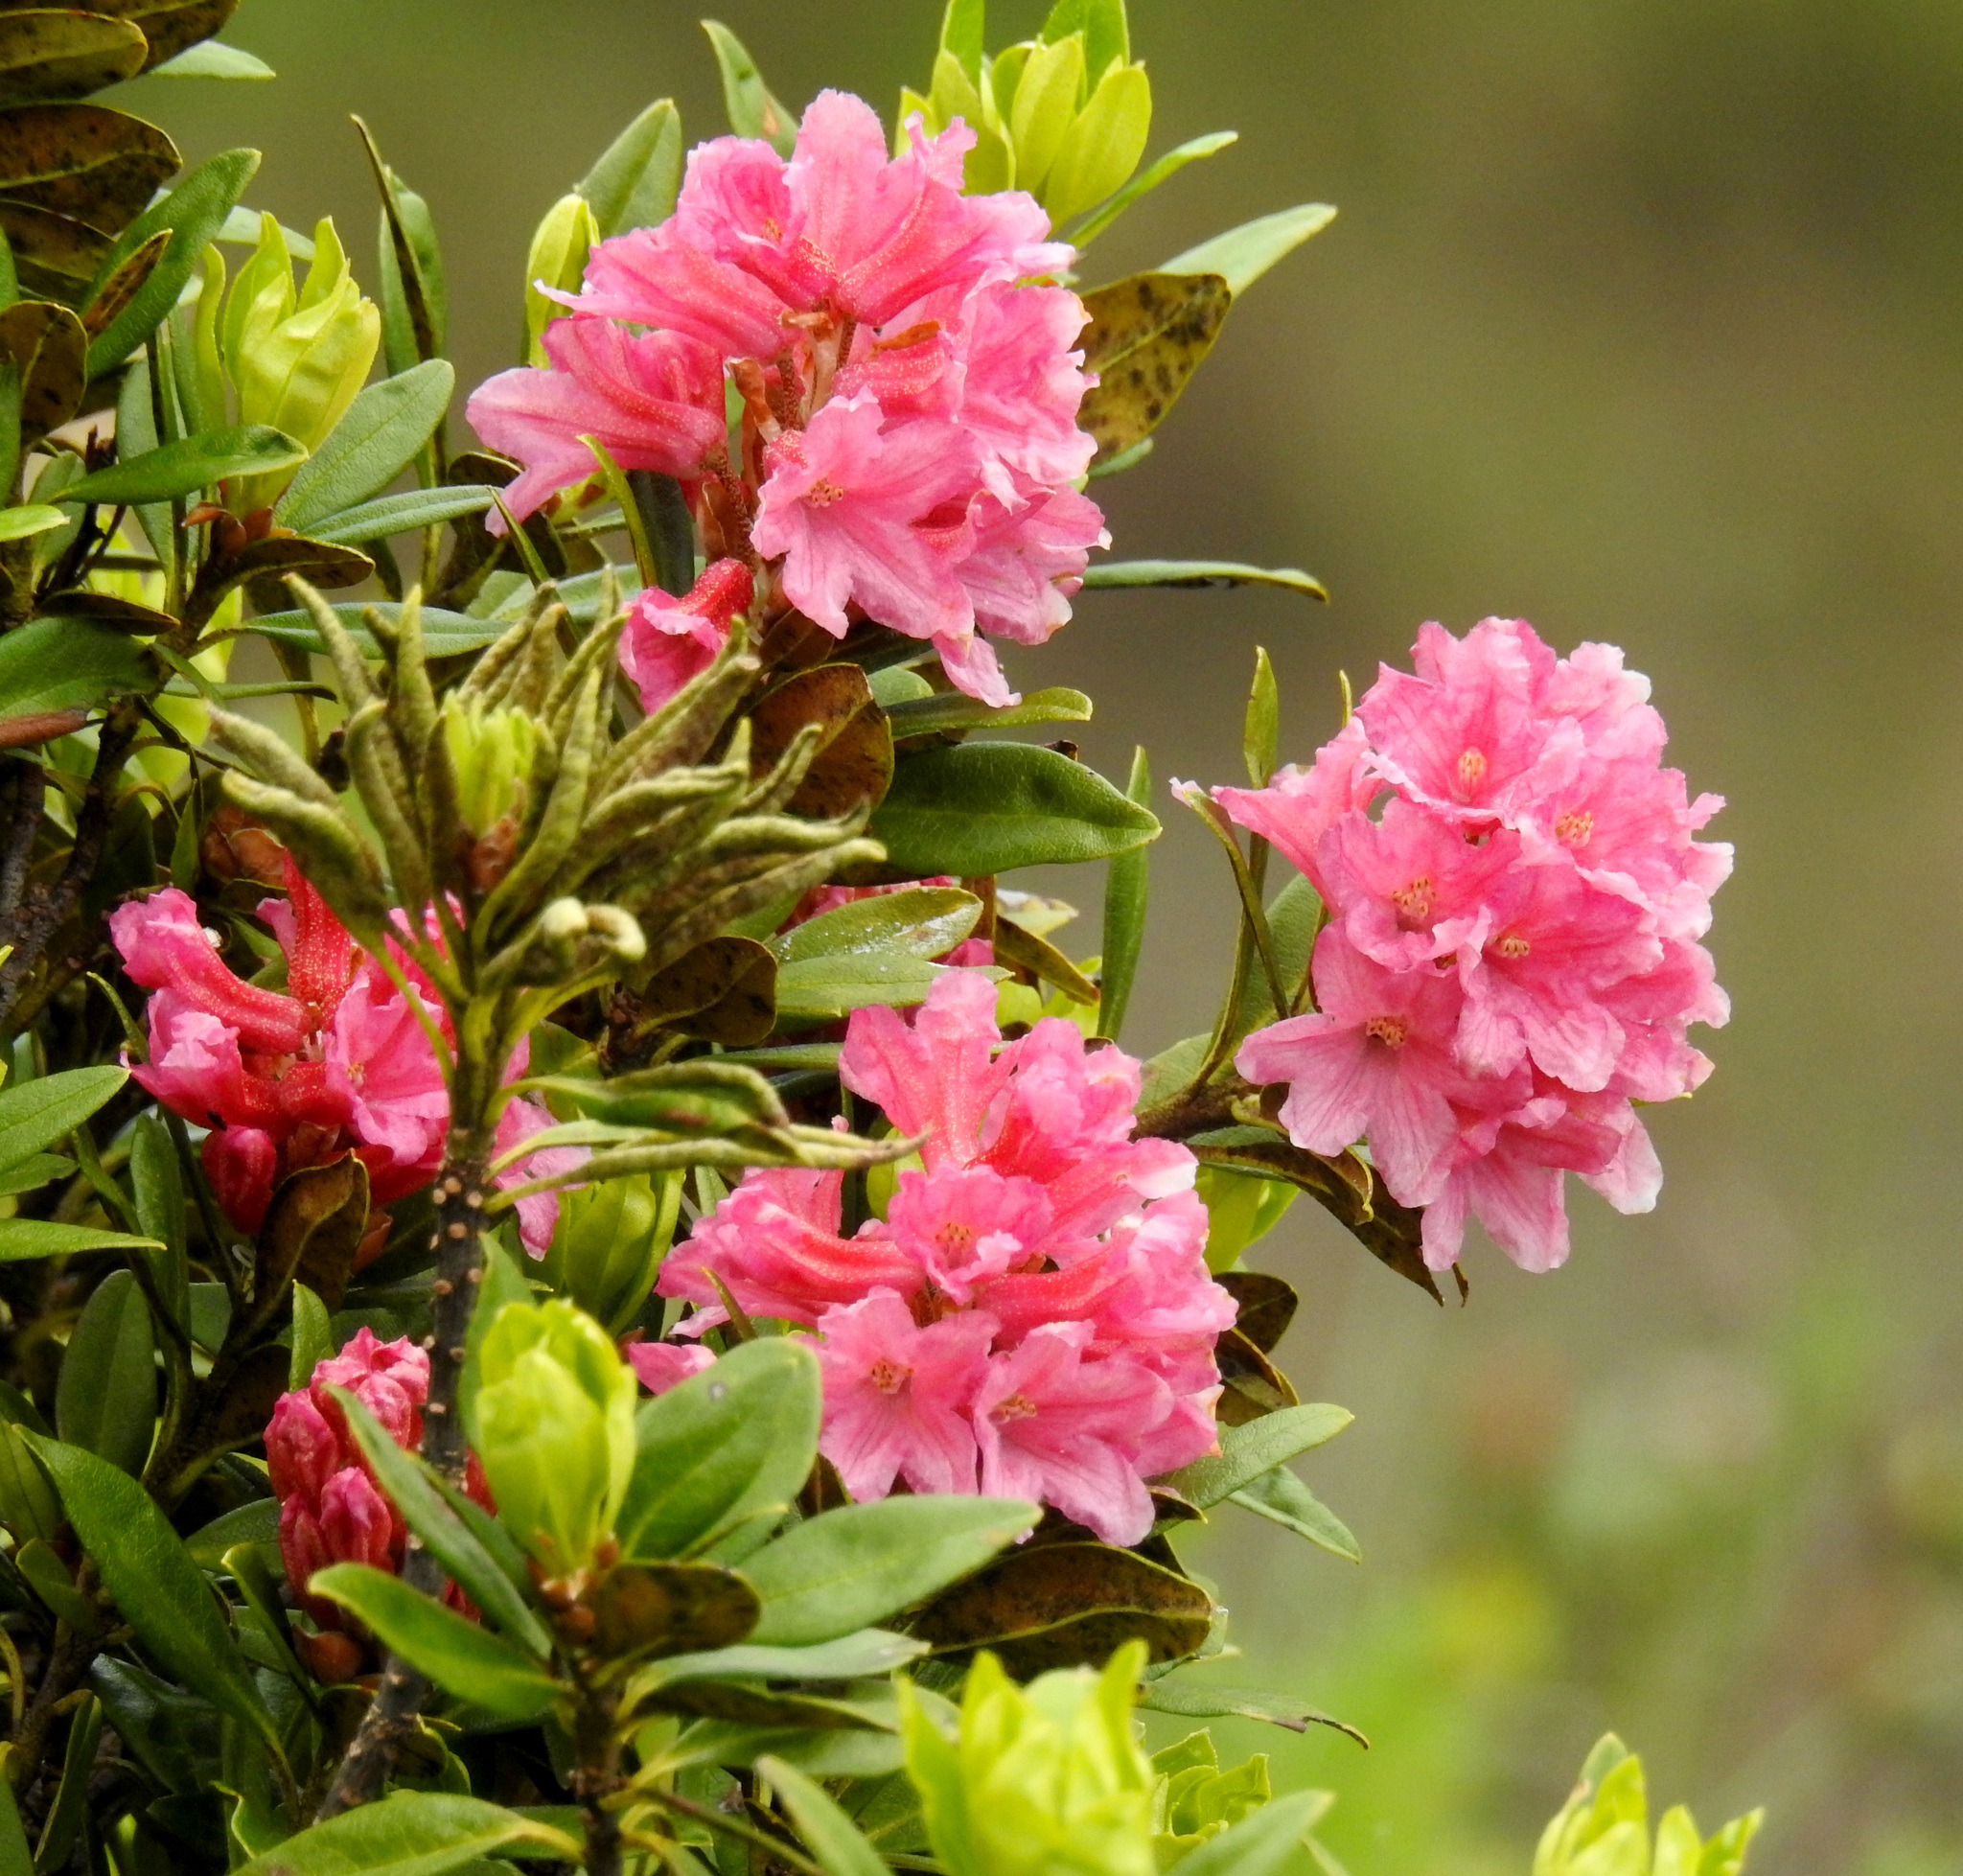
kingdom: Plantae
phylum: Tracheophyta
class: Magnoliopsida
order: Ericales
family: Ericaceae
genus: Rhododendron
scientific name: Rhododendron ferrugineum
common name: Alpenrose
